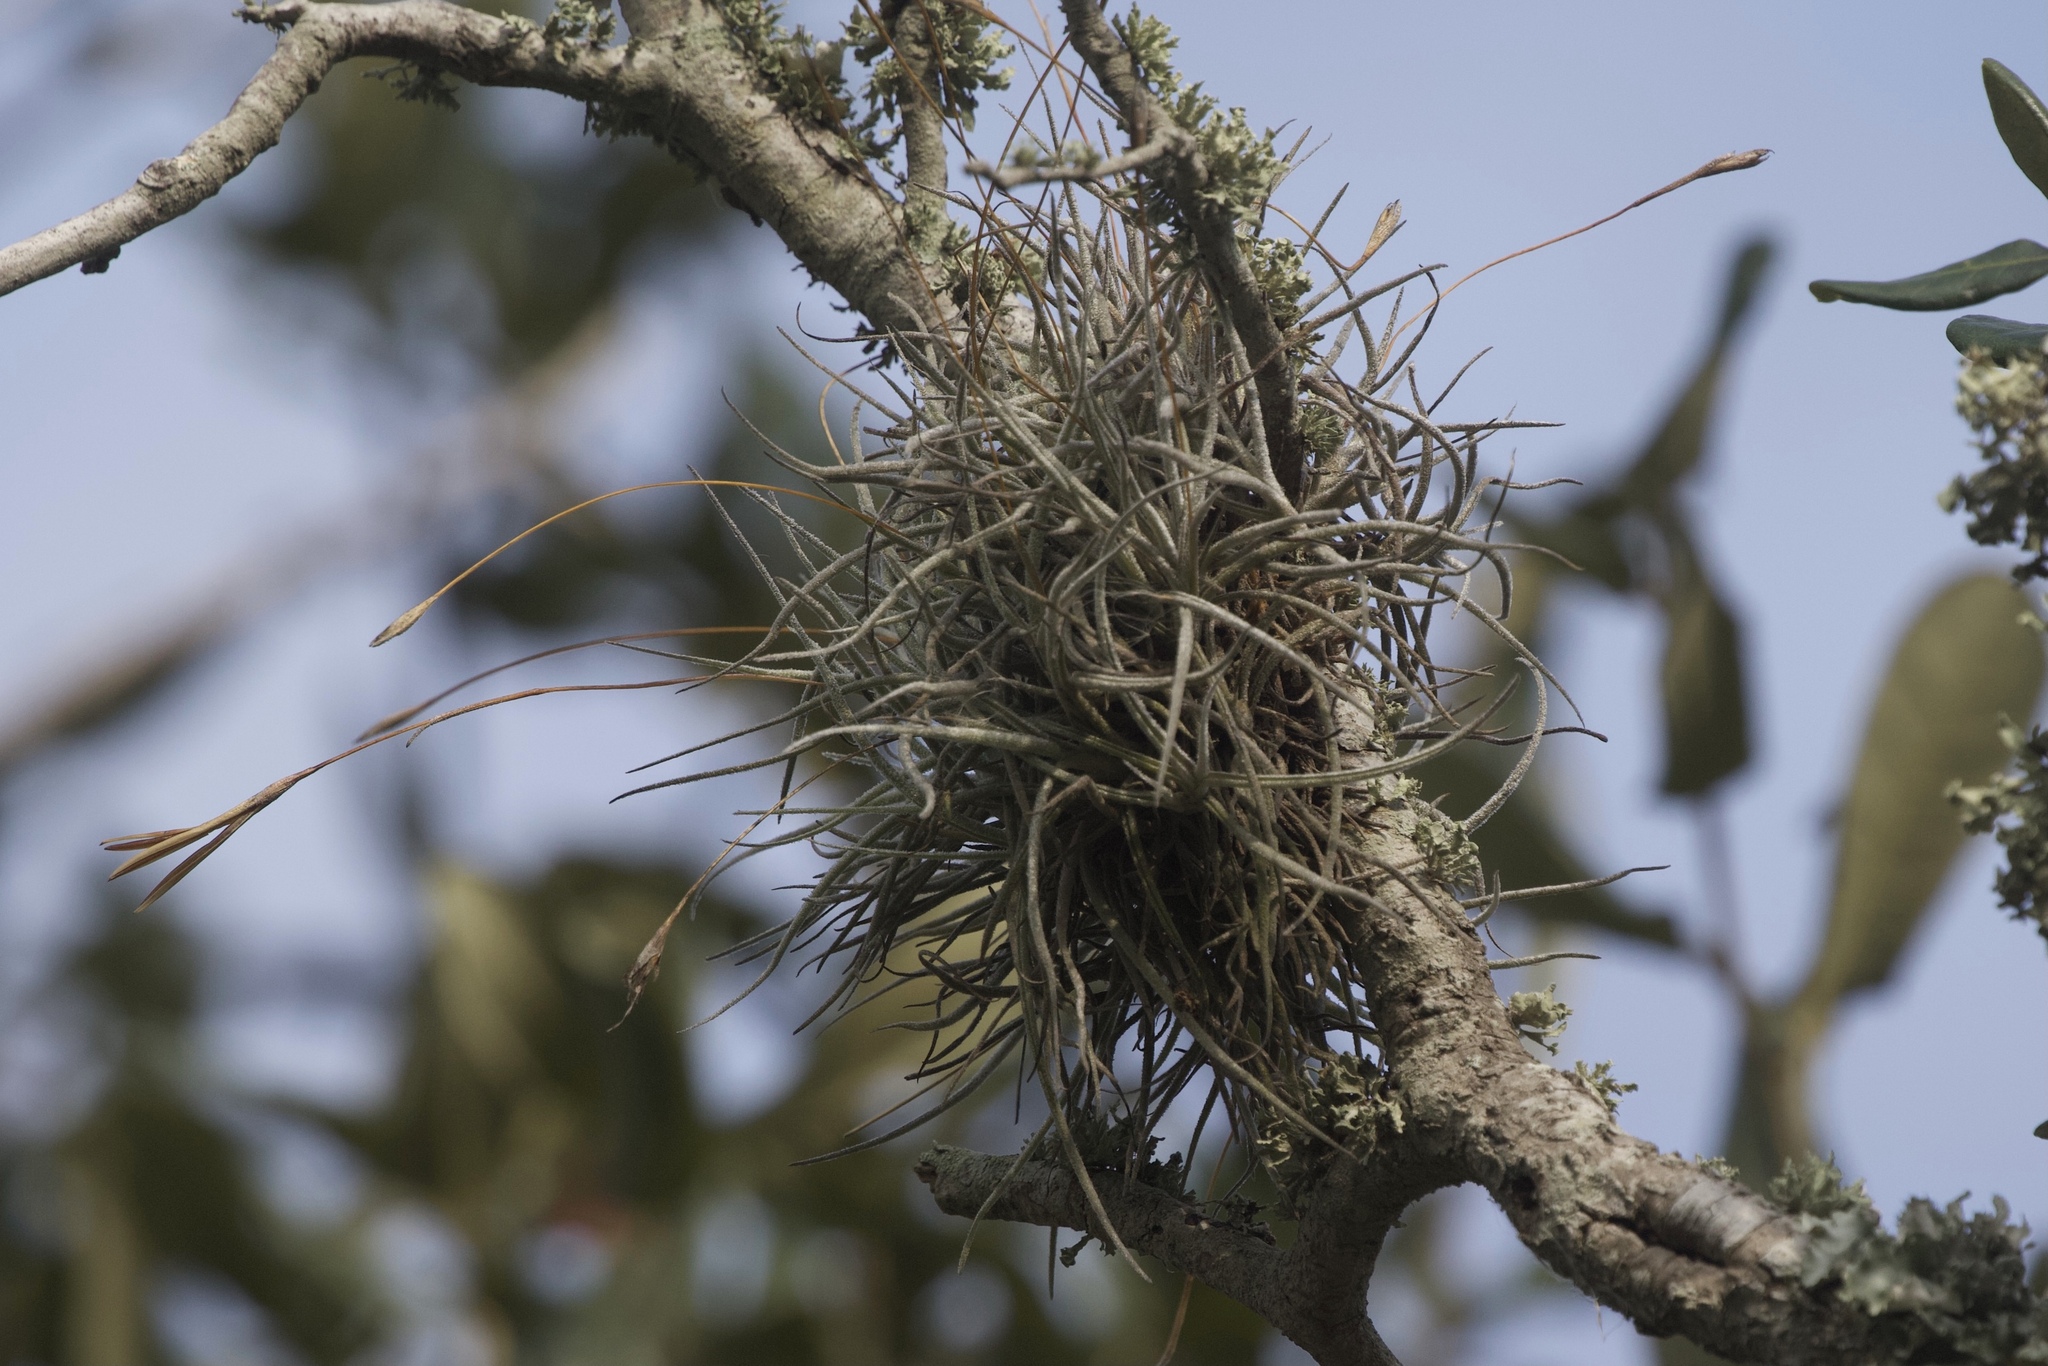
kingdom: Plantae
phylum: Tracheophyta
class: Liliopsida
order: Poales
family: Bromeliaceae
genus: Tillandsia
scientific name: Tillandsia recurvata
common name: Small ballmoss
